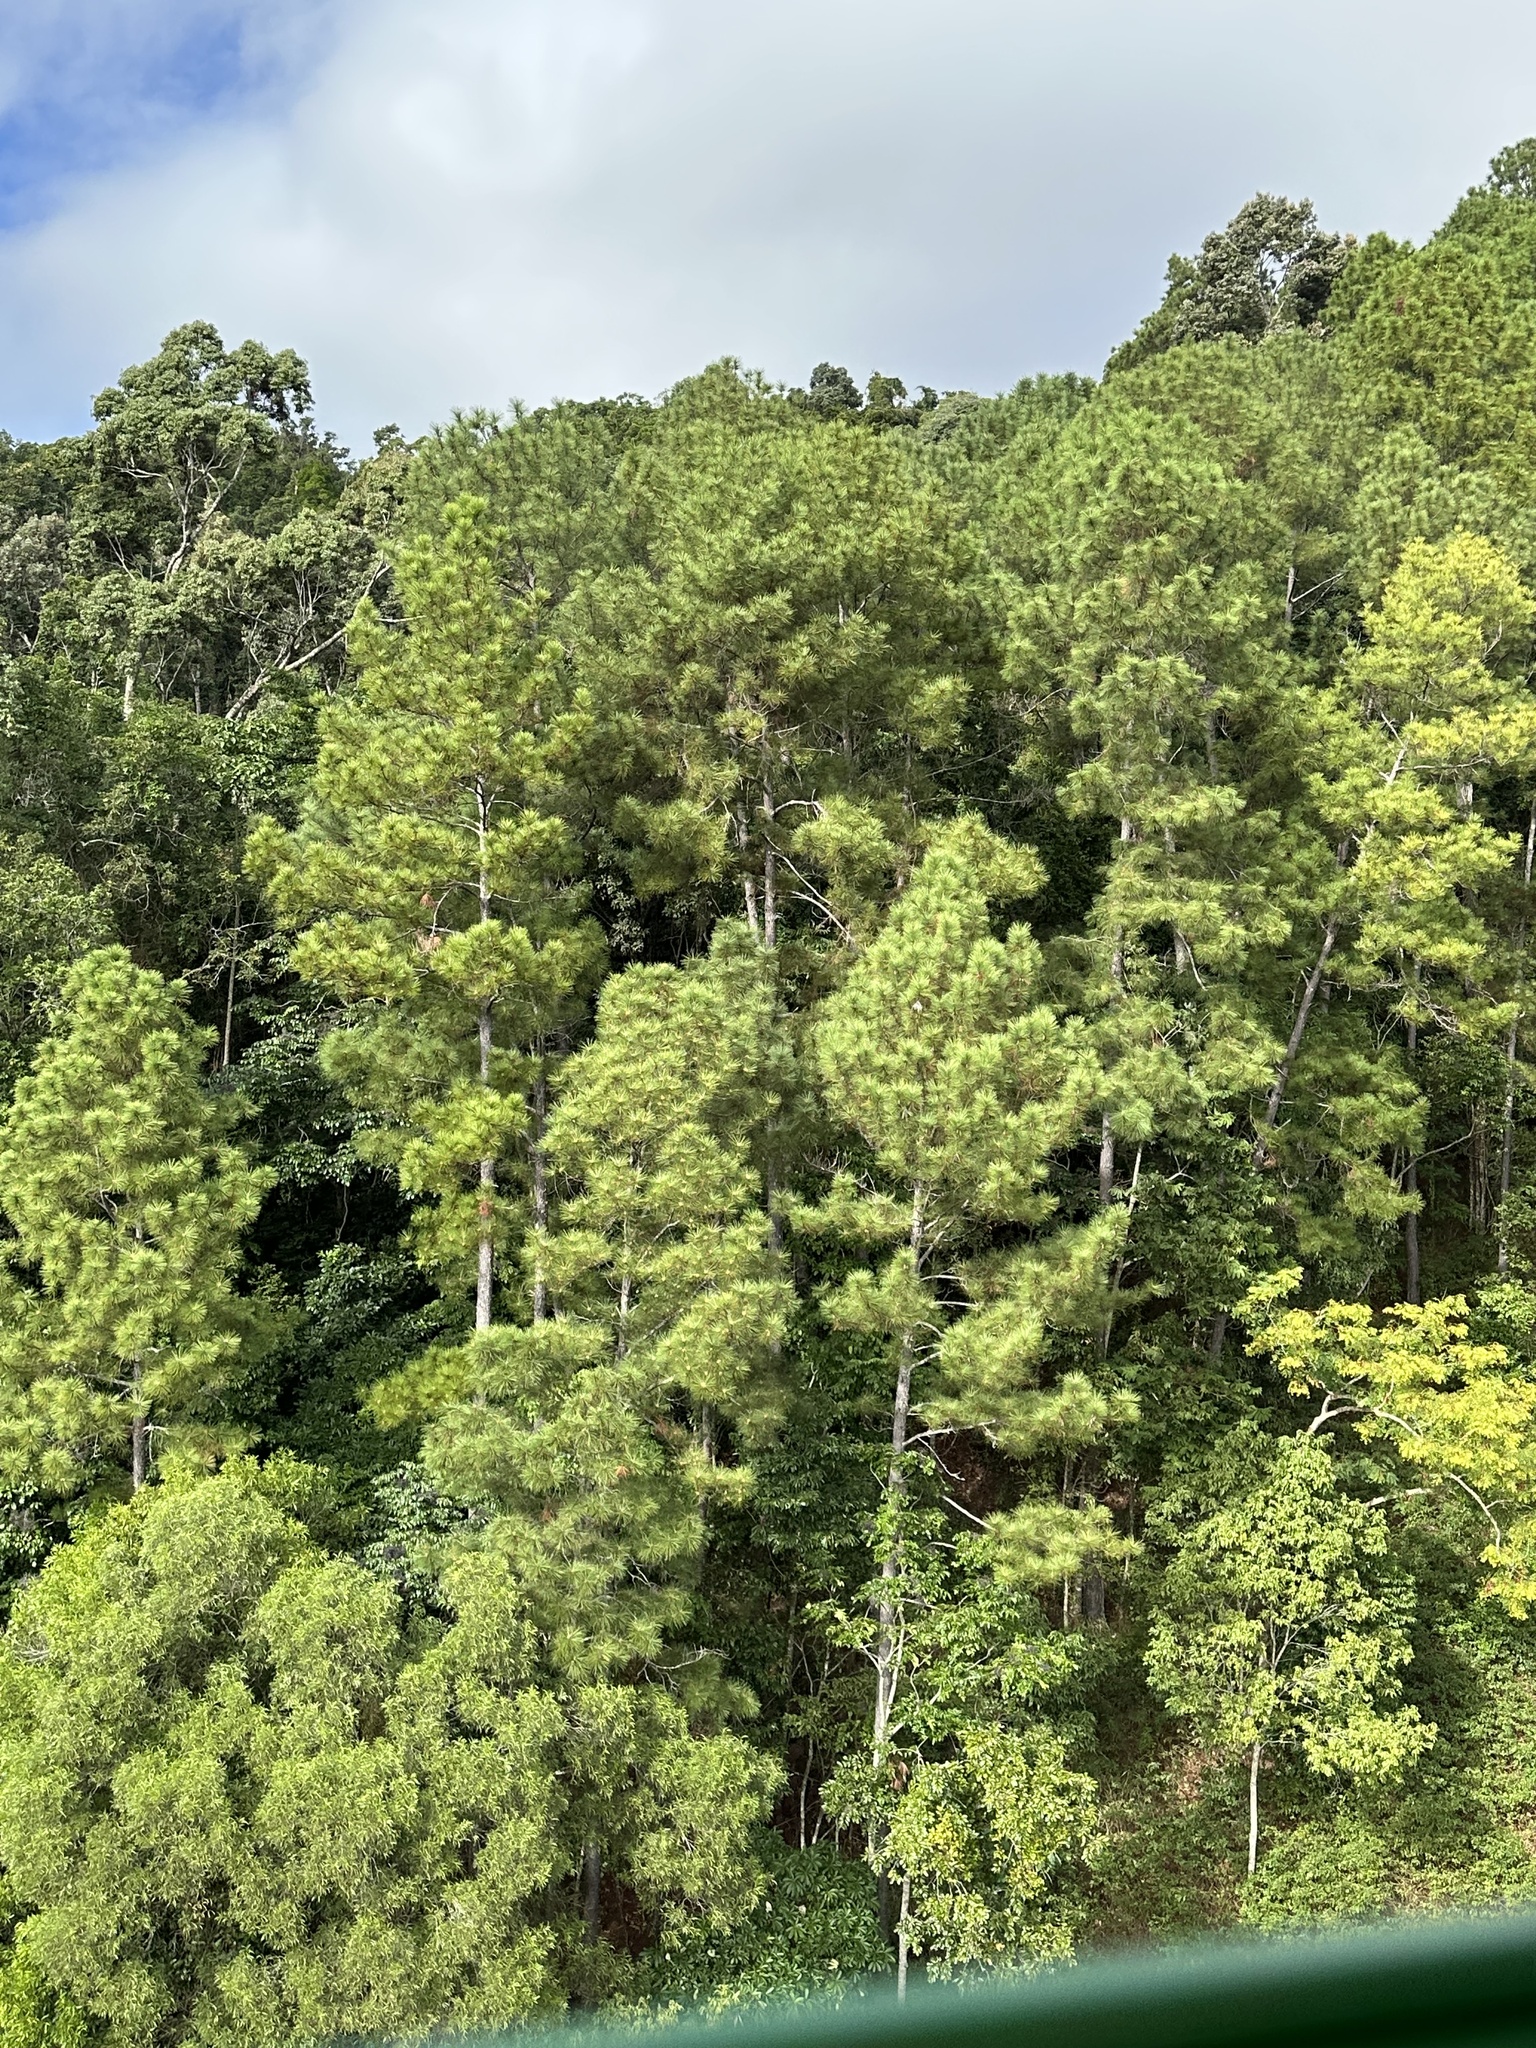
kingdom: Plantae
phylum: Tracheophyta
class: Pinopsida
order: Pinales
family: Pinaceae
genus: Pinus
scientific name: Pinus caribaea
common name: Caribbean pine
